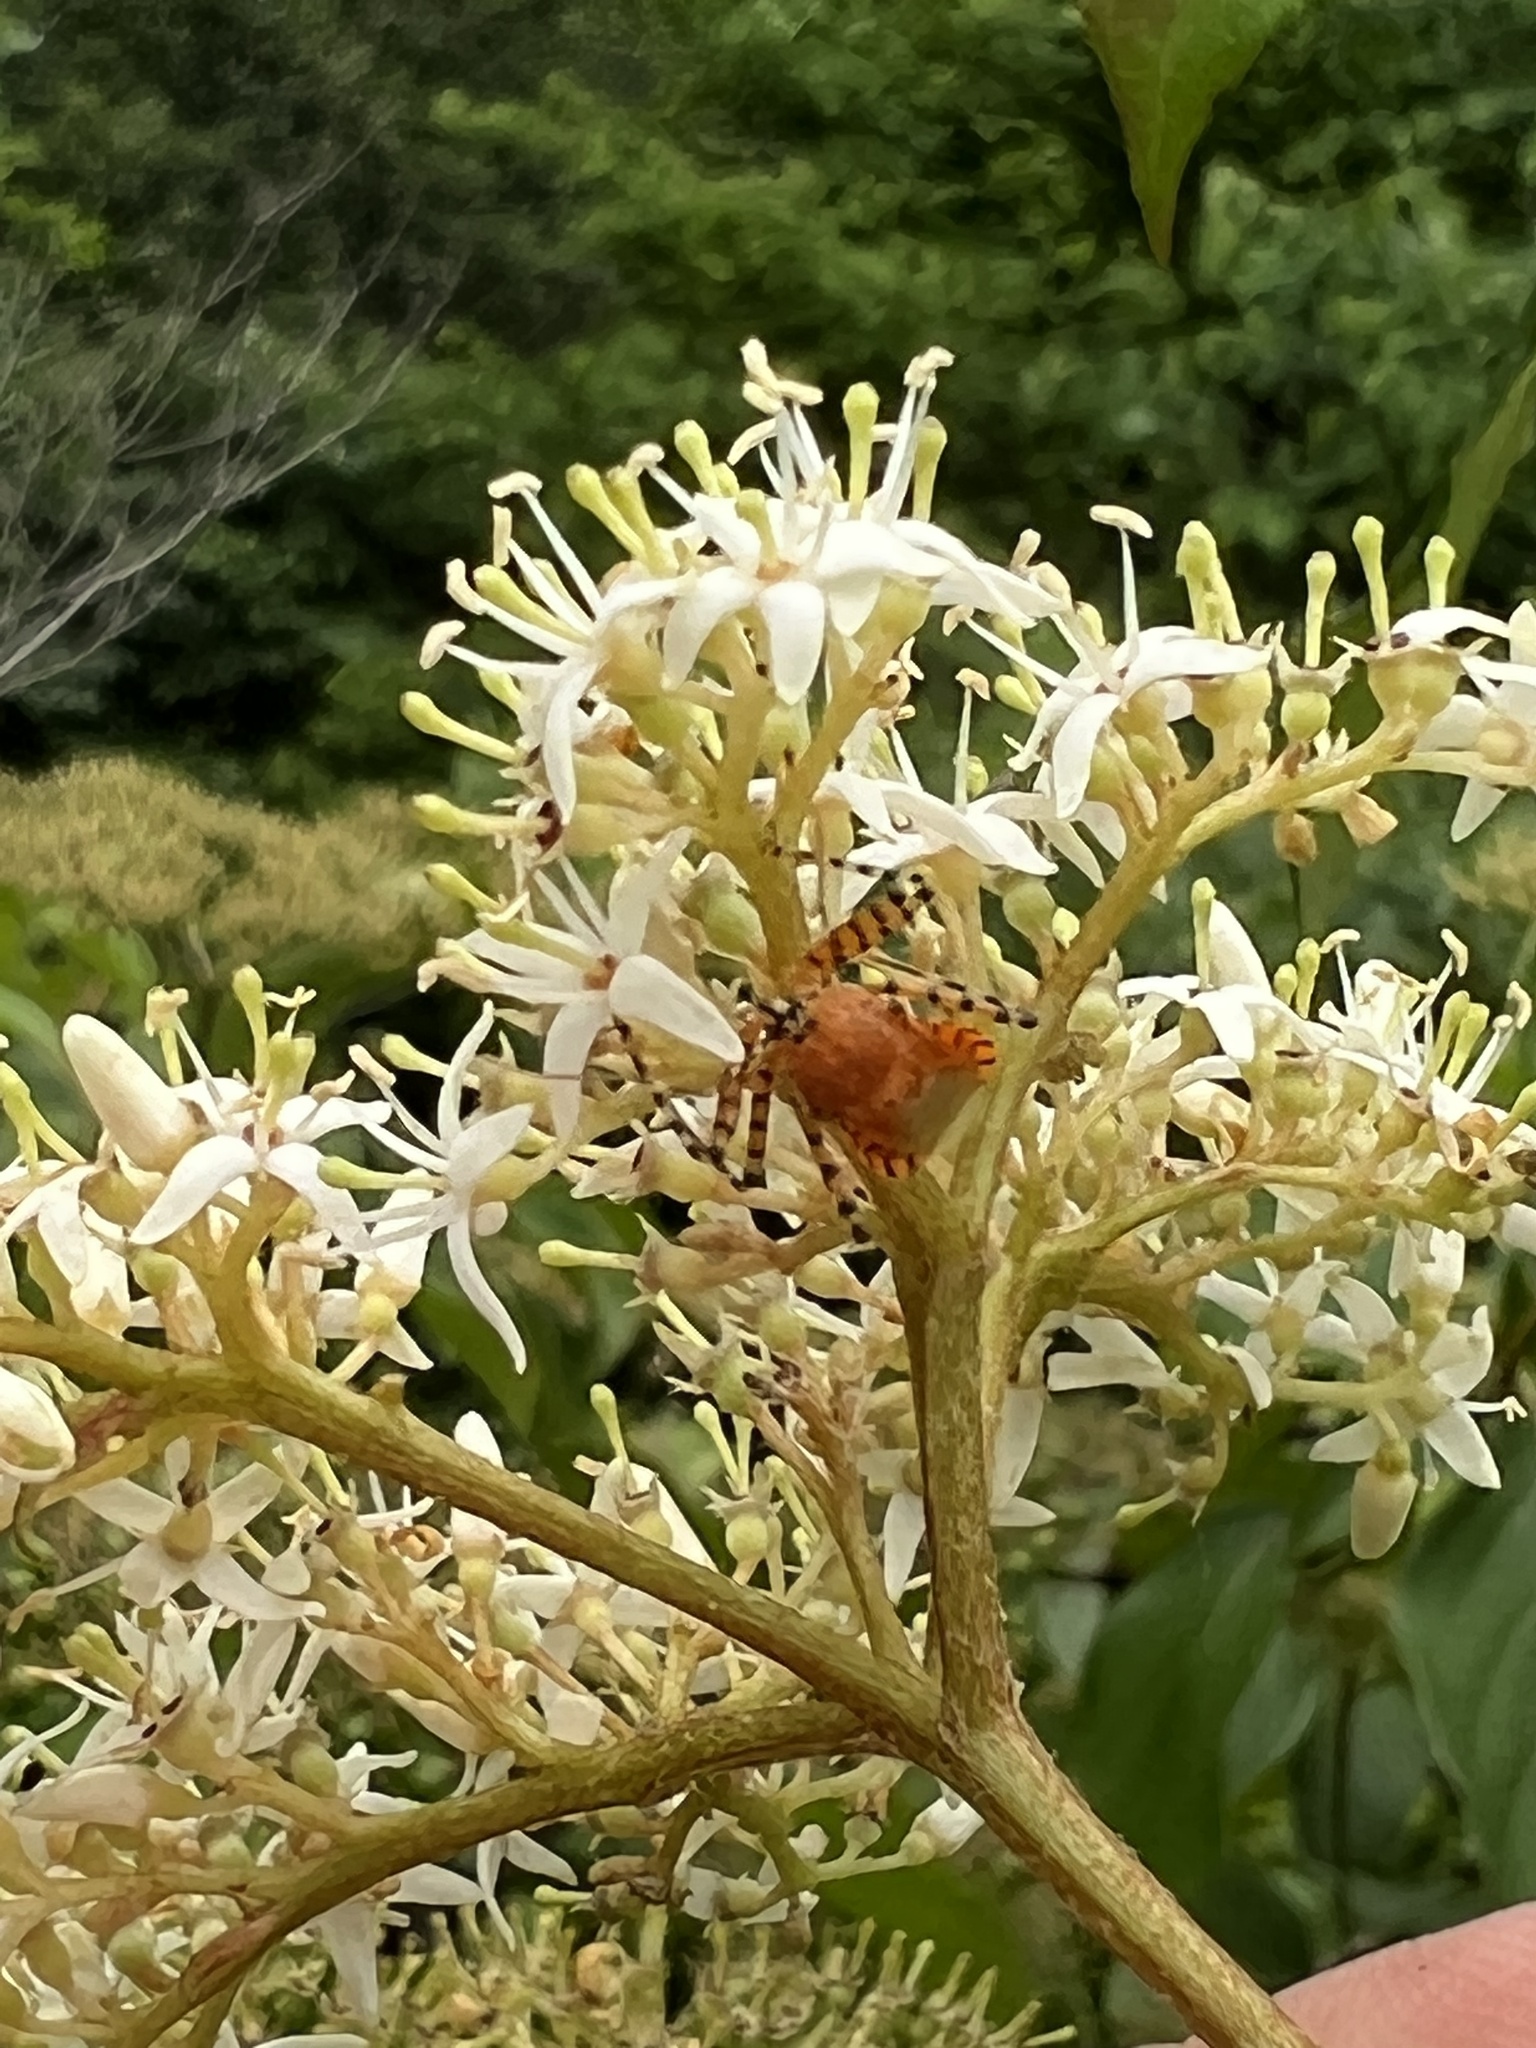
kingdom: Animalia
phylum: Arthropoda
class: Insecta
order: Hemiptera
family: Reduviidae
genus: Pselliopus
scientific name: Pselliopus barberi
